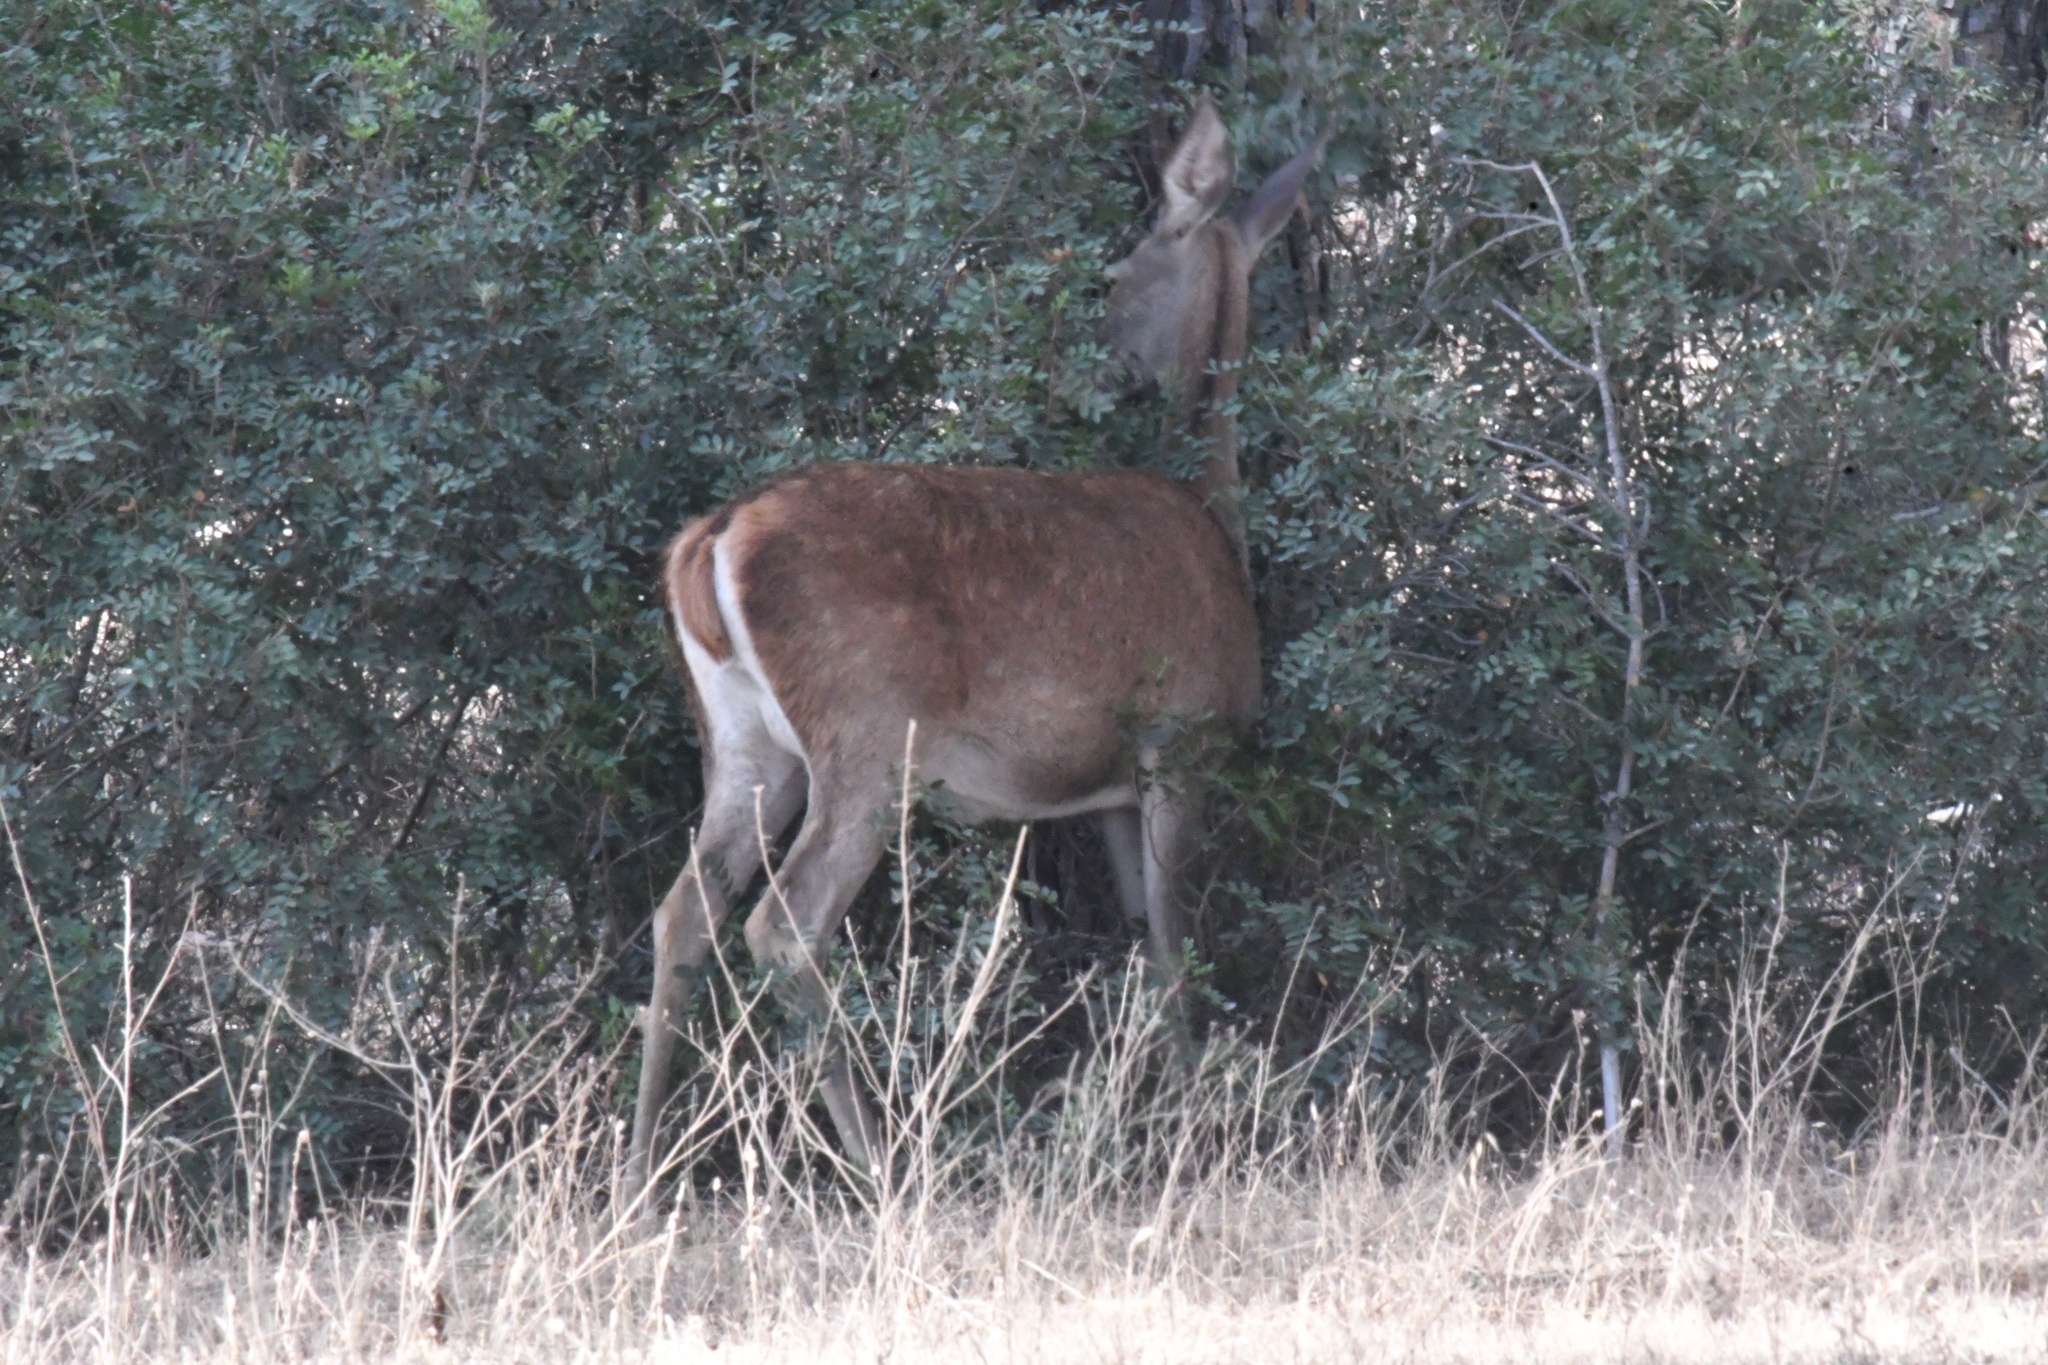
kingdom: Animalia
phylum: Chordata
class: Mammalia
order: Artiodactyla
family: Cervidae
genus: Cervus
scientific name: Cervus elaphus
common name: Red deer
